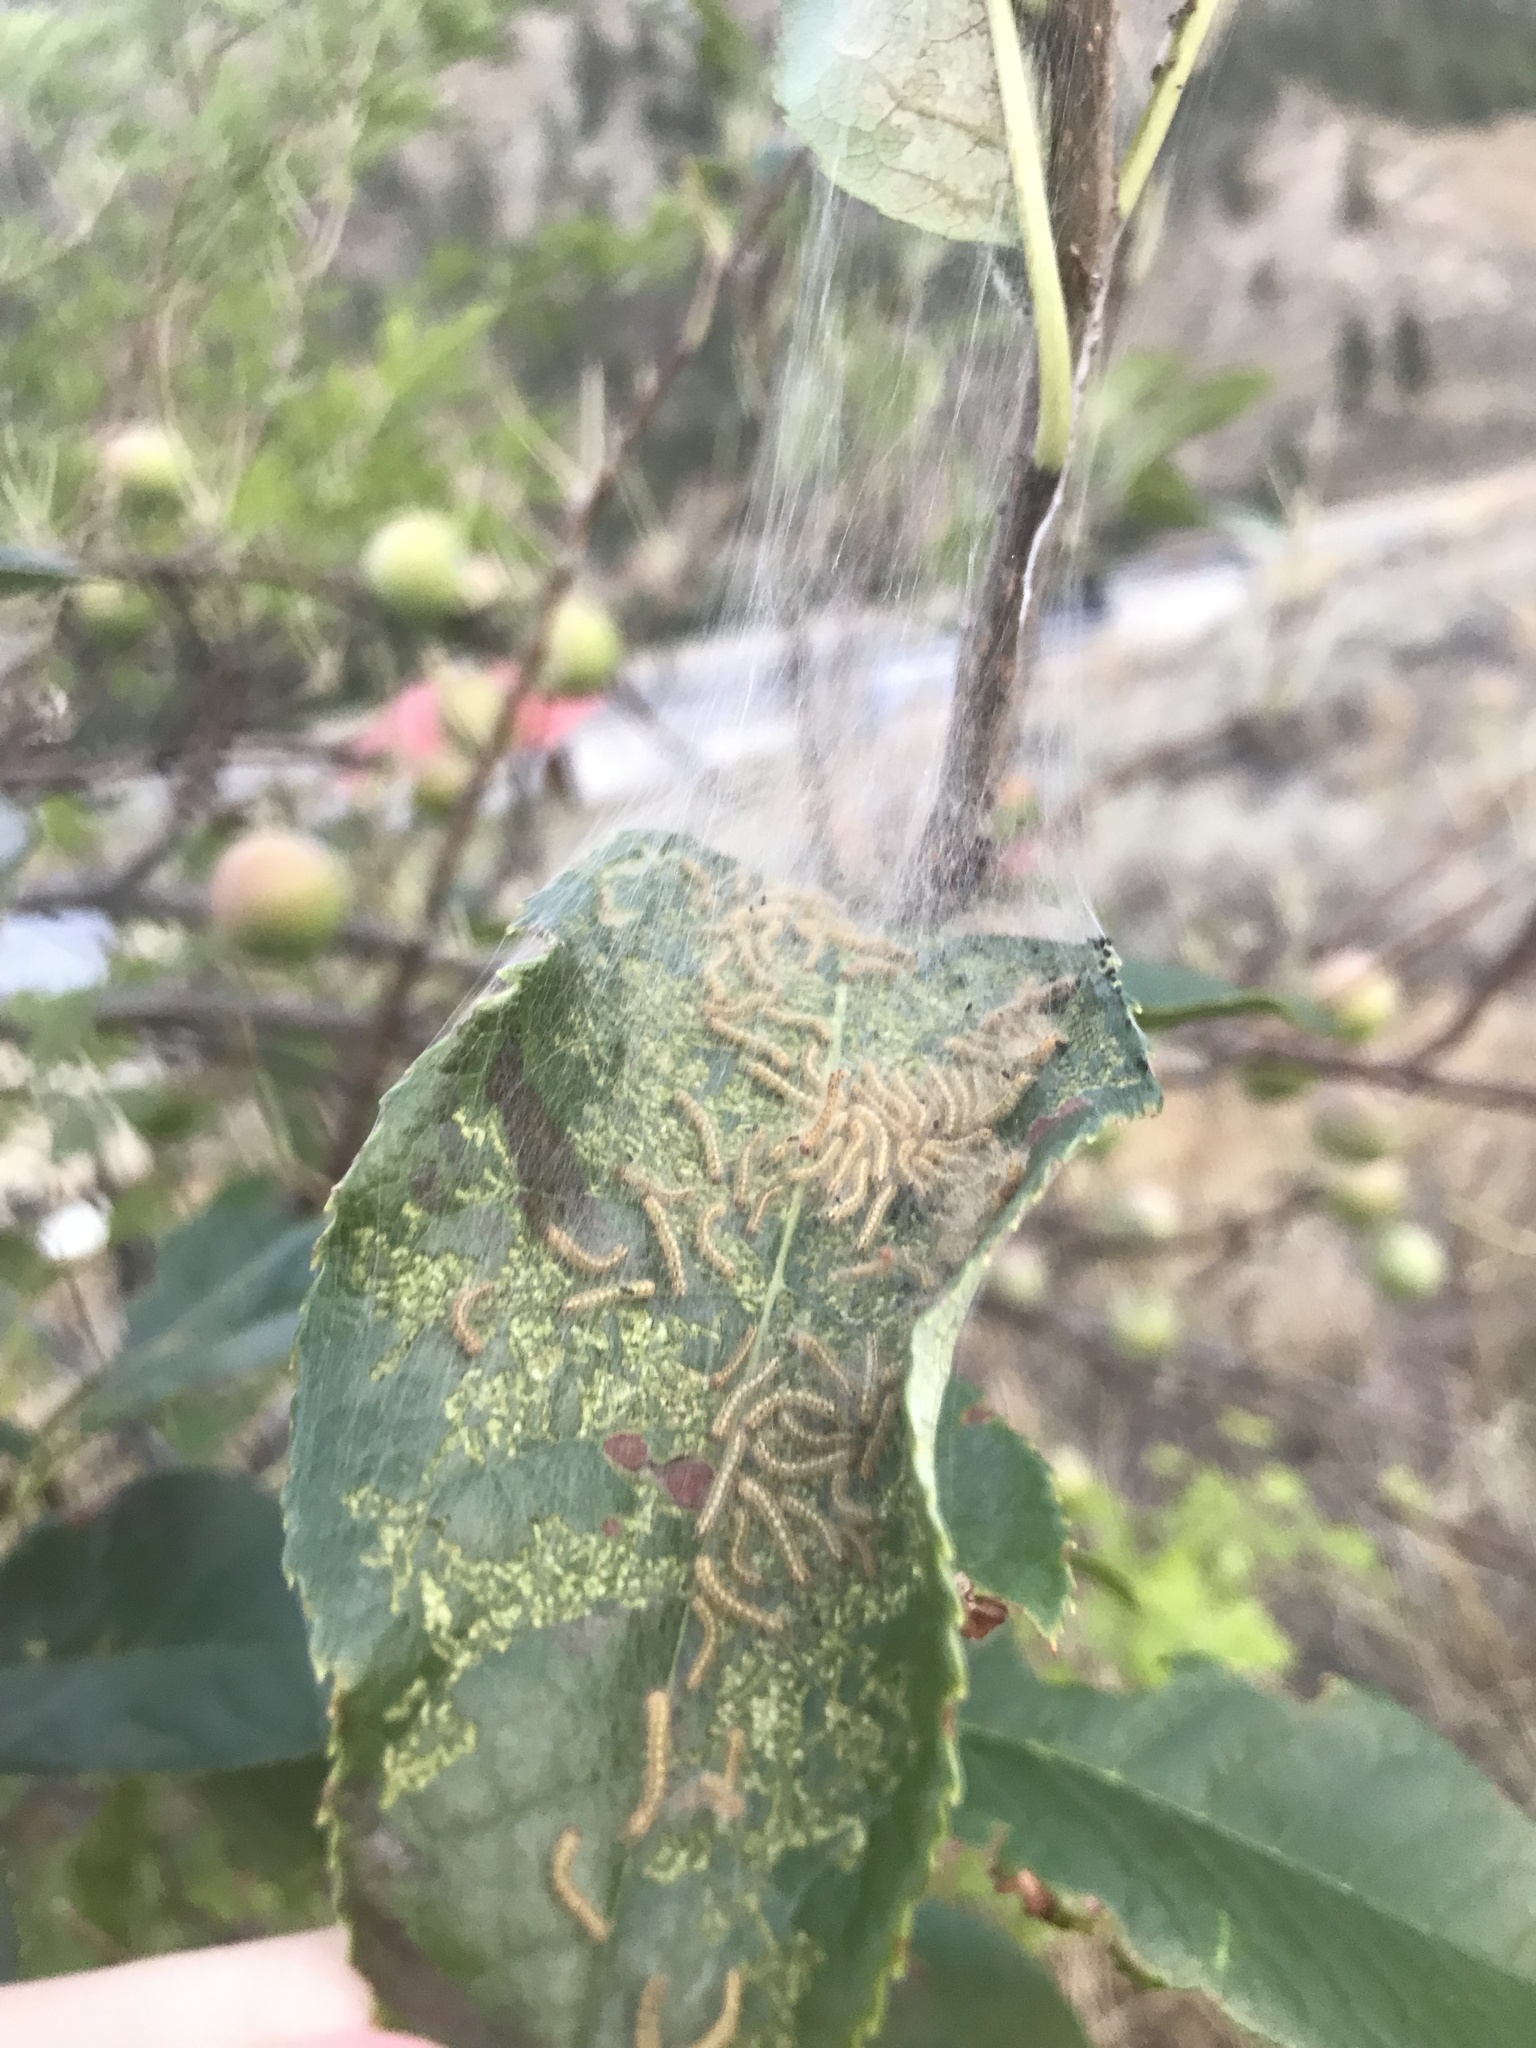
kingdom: Animalia
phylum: Arthropoda
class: Insecta
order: Lepidoptera
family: Erebidae
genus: Hyphantria
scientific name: Hyphantria cunea
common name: American white moth
